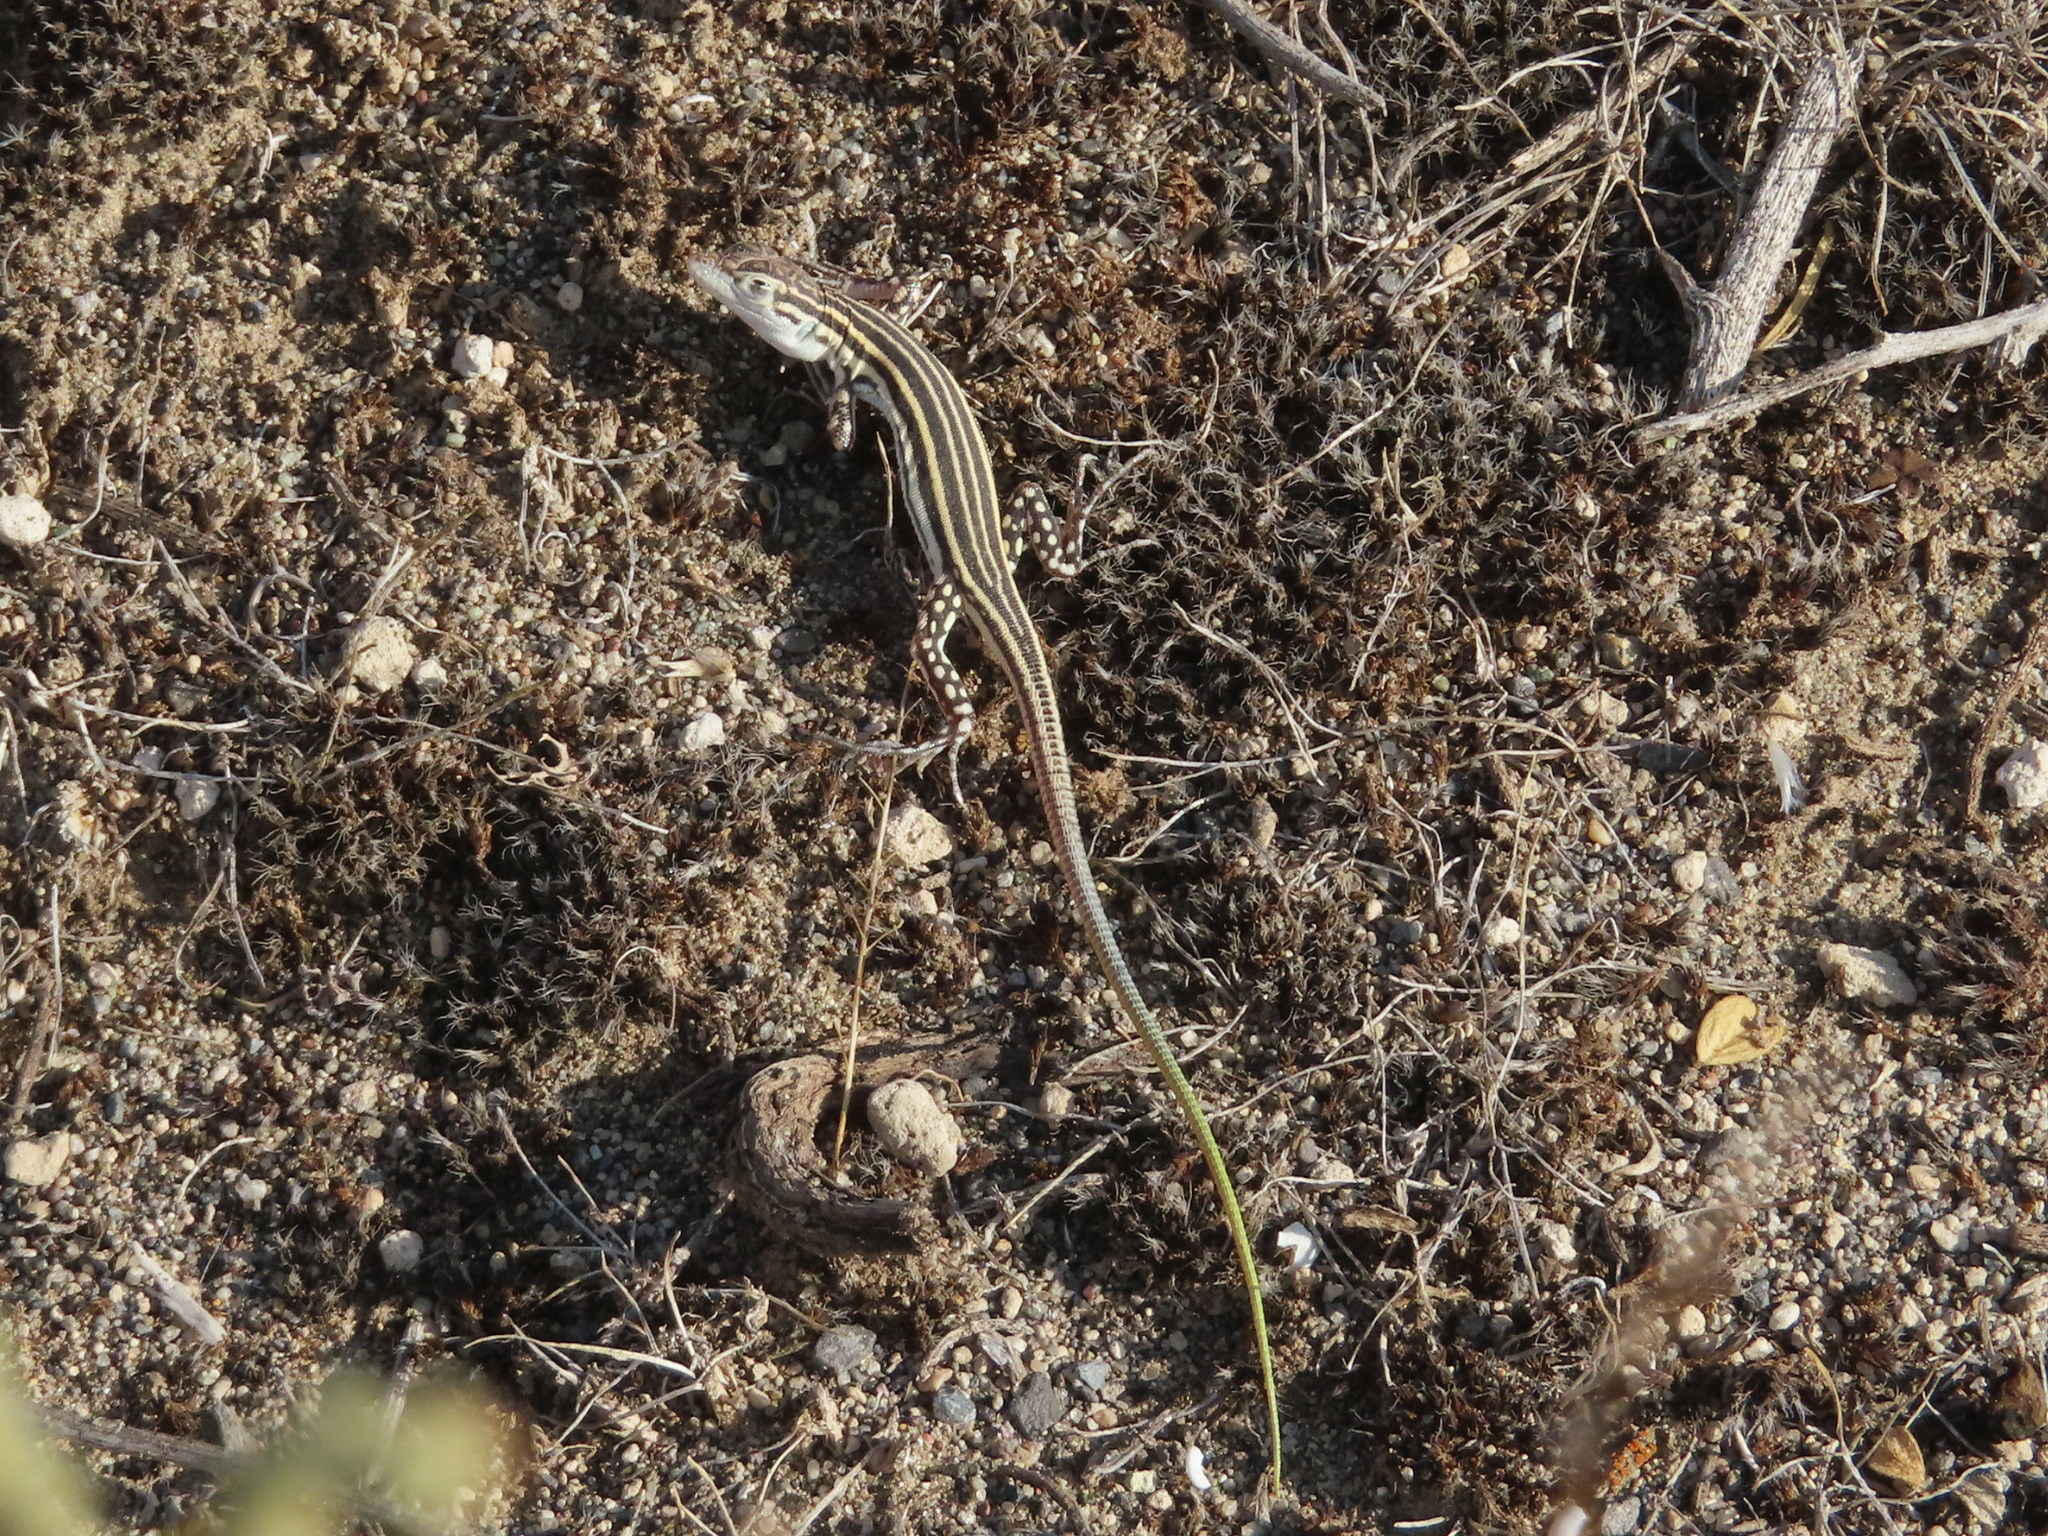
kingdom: Animalia
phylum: Chordata
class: Squamata
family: Lacertidae
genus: Eremias
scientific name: Eremias pleskei
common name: Pleske's racerunner
